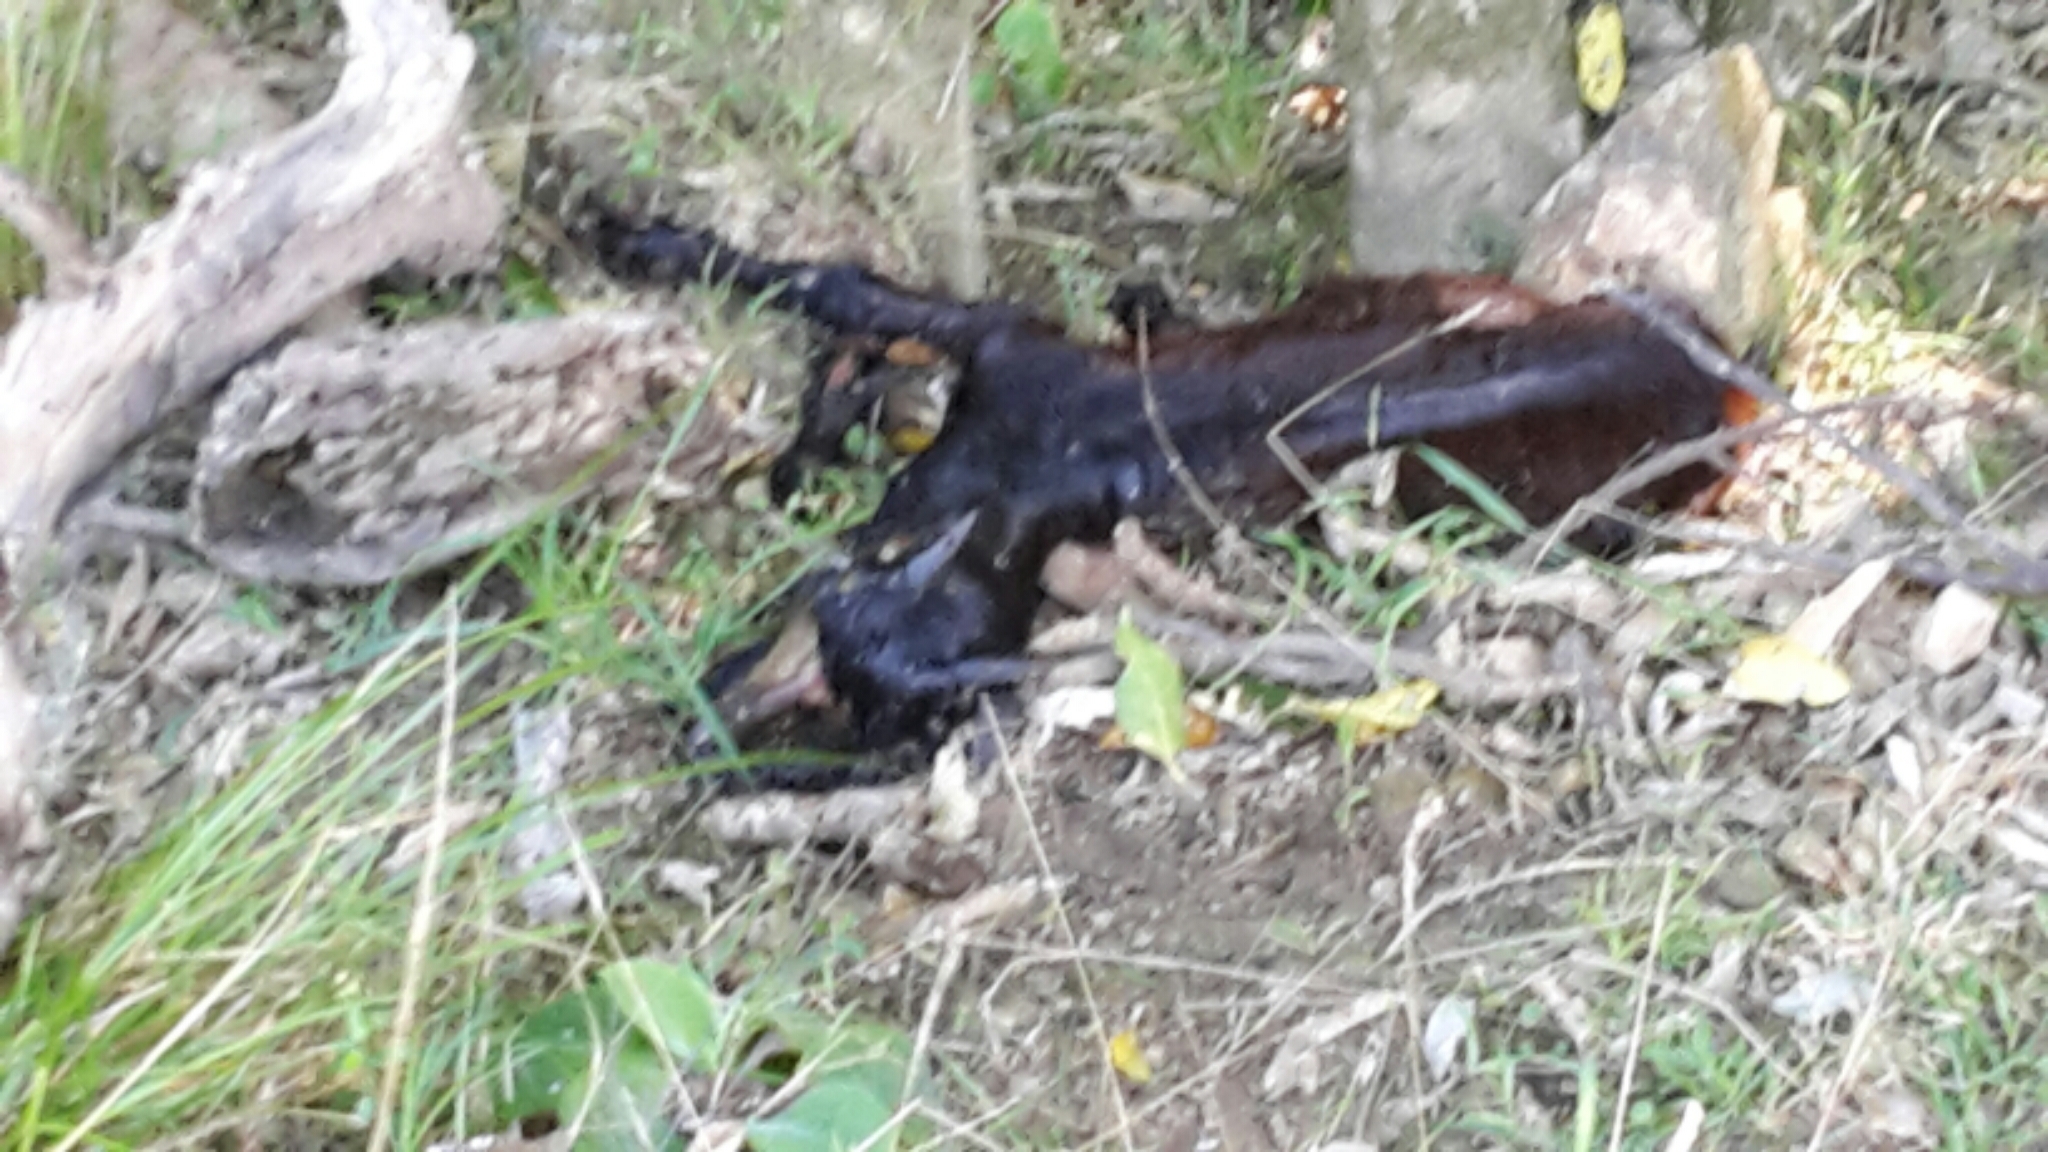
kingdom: Animalia
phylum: Chordata
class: Mammalia
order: Artiodactyla
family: Bovidae
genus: Capra
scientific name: Capra hircus
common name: Domestic goat
